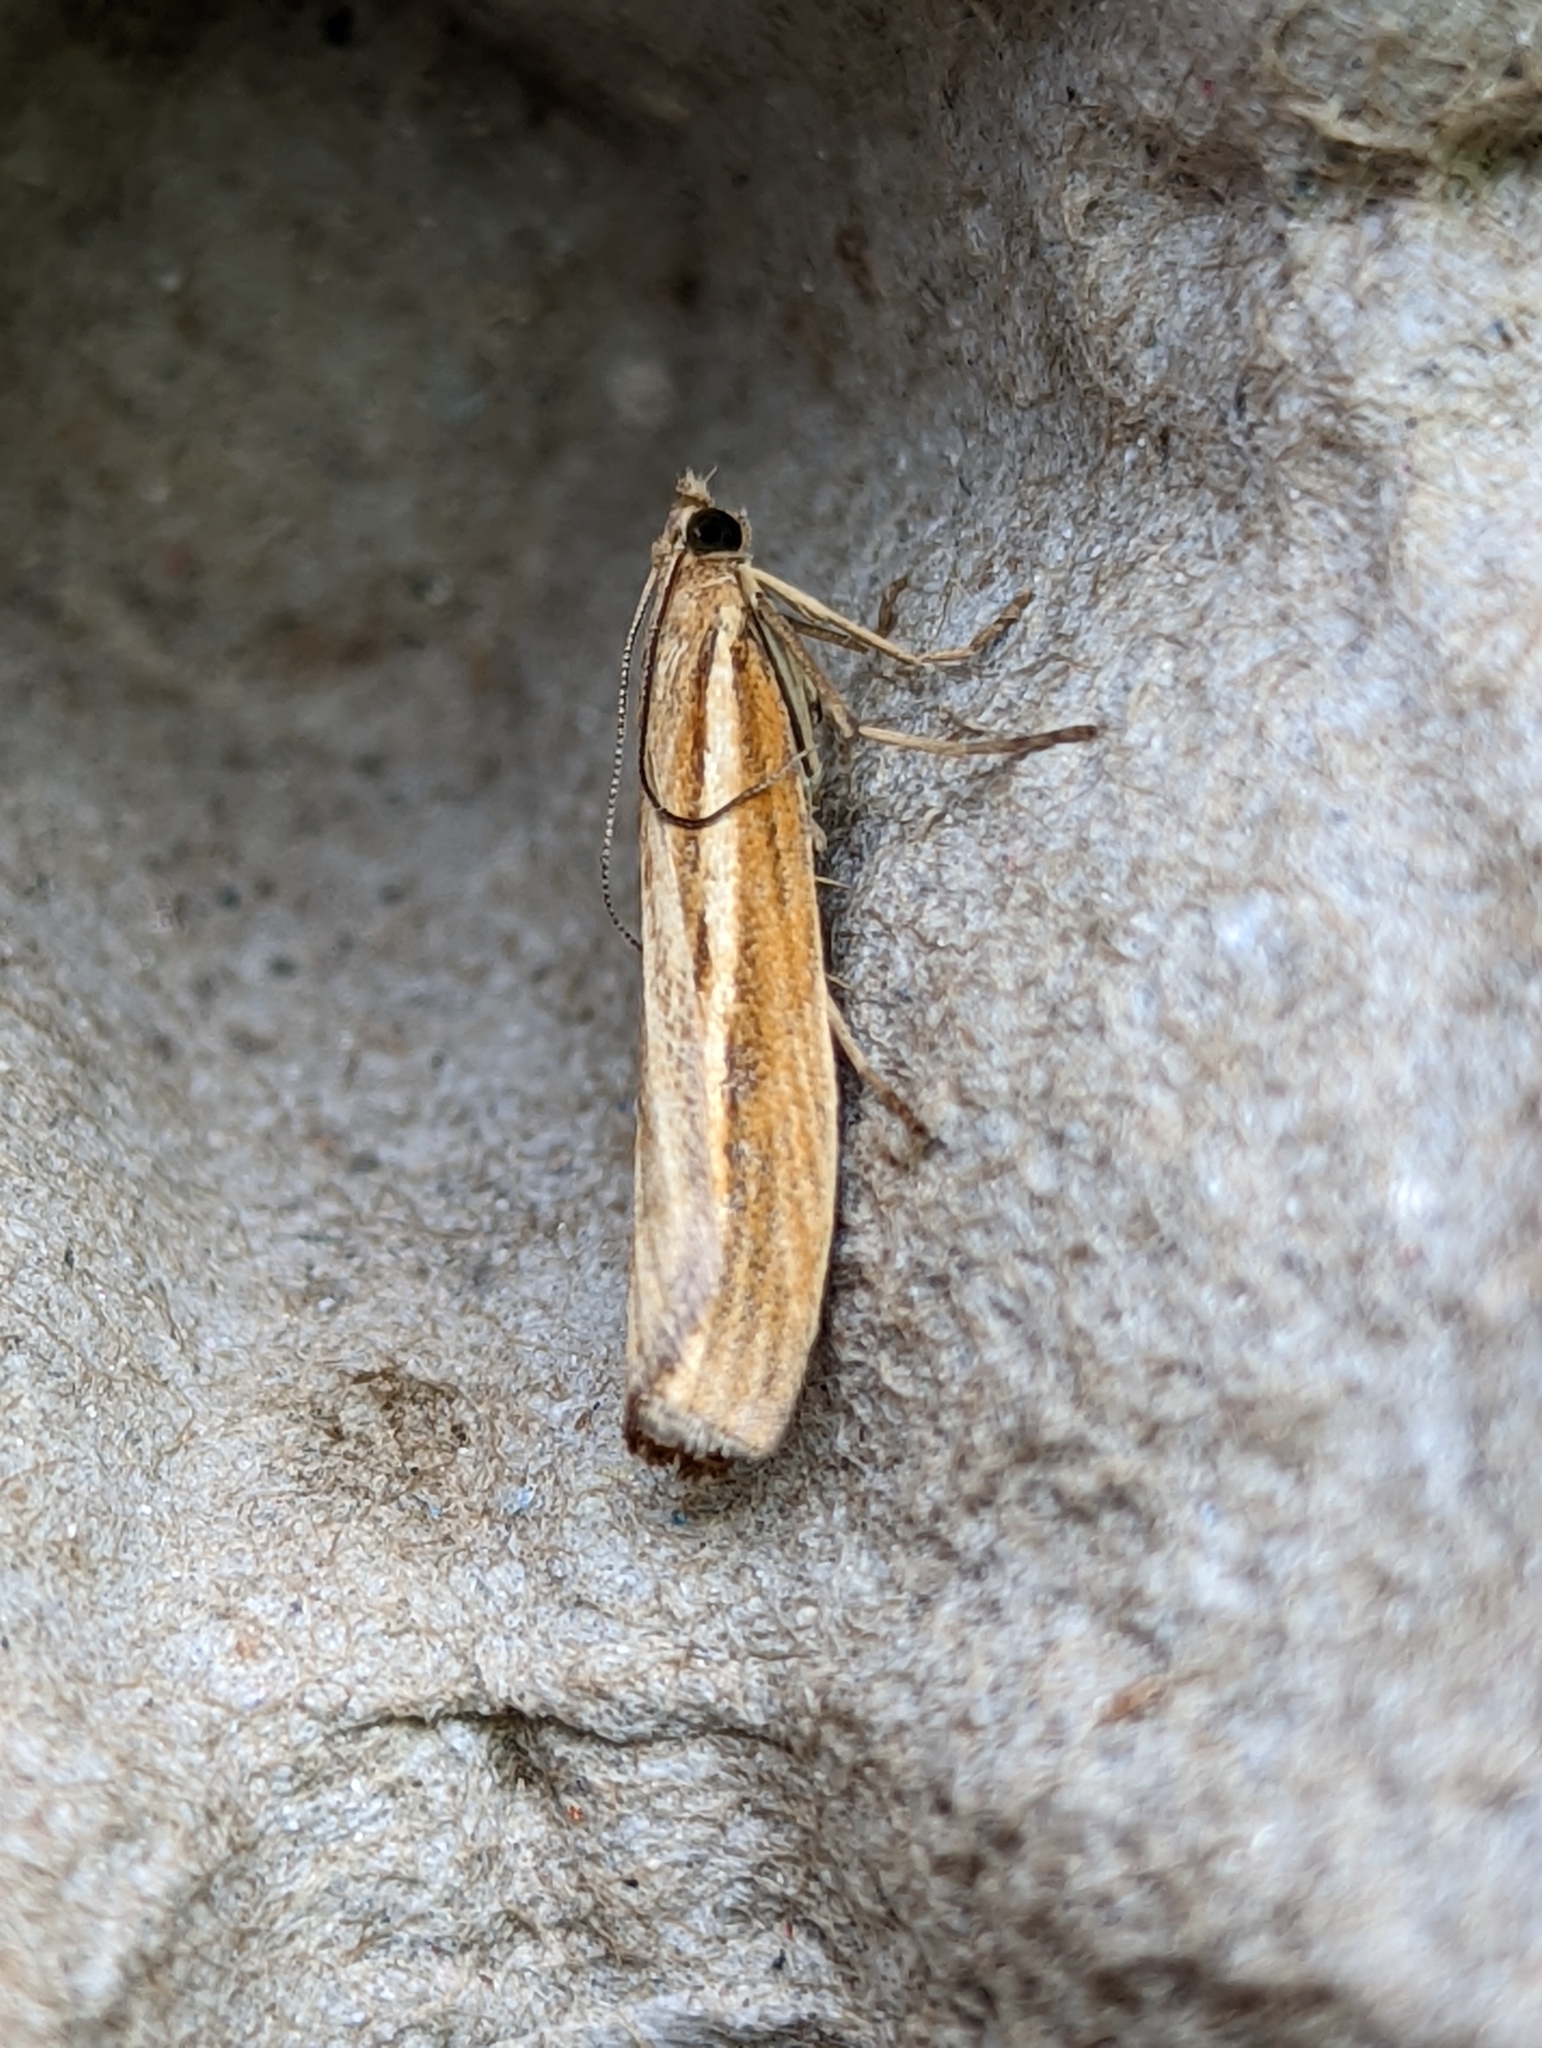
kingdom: Animalia
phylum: Arthropoda
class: Insecta
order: Lepidoptera
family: Crambidae
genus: Agriphila
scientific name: Agriphila tristellus
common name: Common grass-veneer
